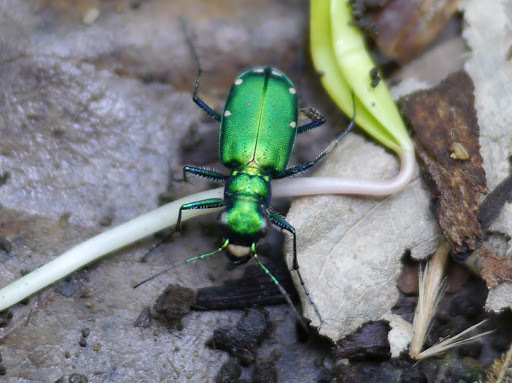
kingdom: Animalia
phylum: Arthropoda
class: Insecta
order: Coleoptera
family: Carabidae
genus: Cicindela
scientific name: Cicindela sexguttata
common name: Six-spotted tiger beetle
